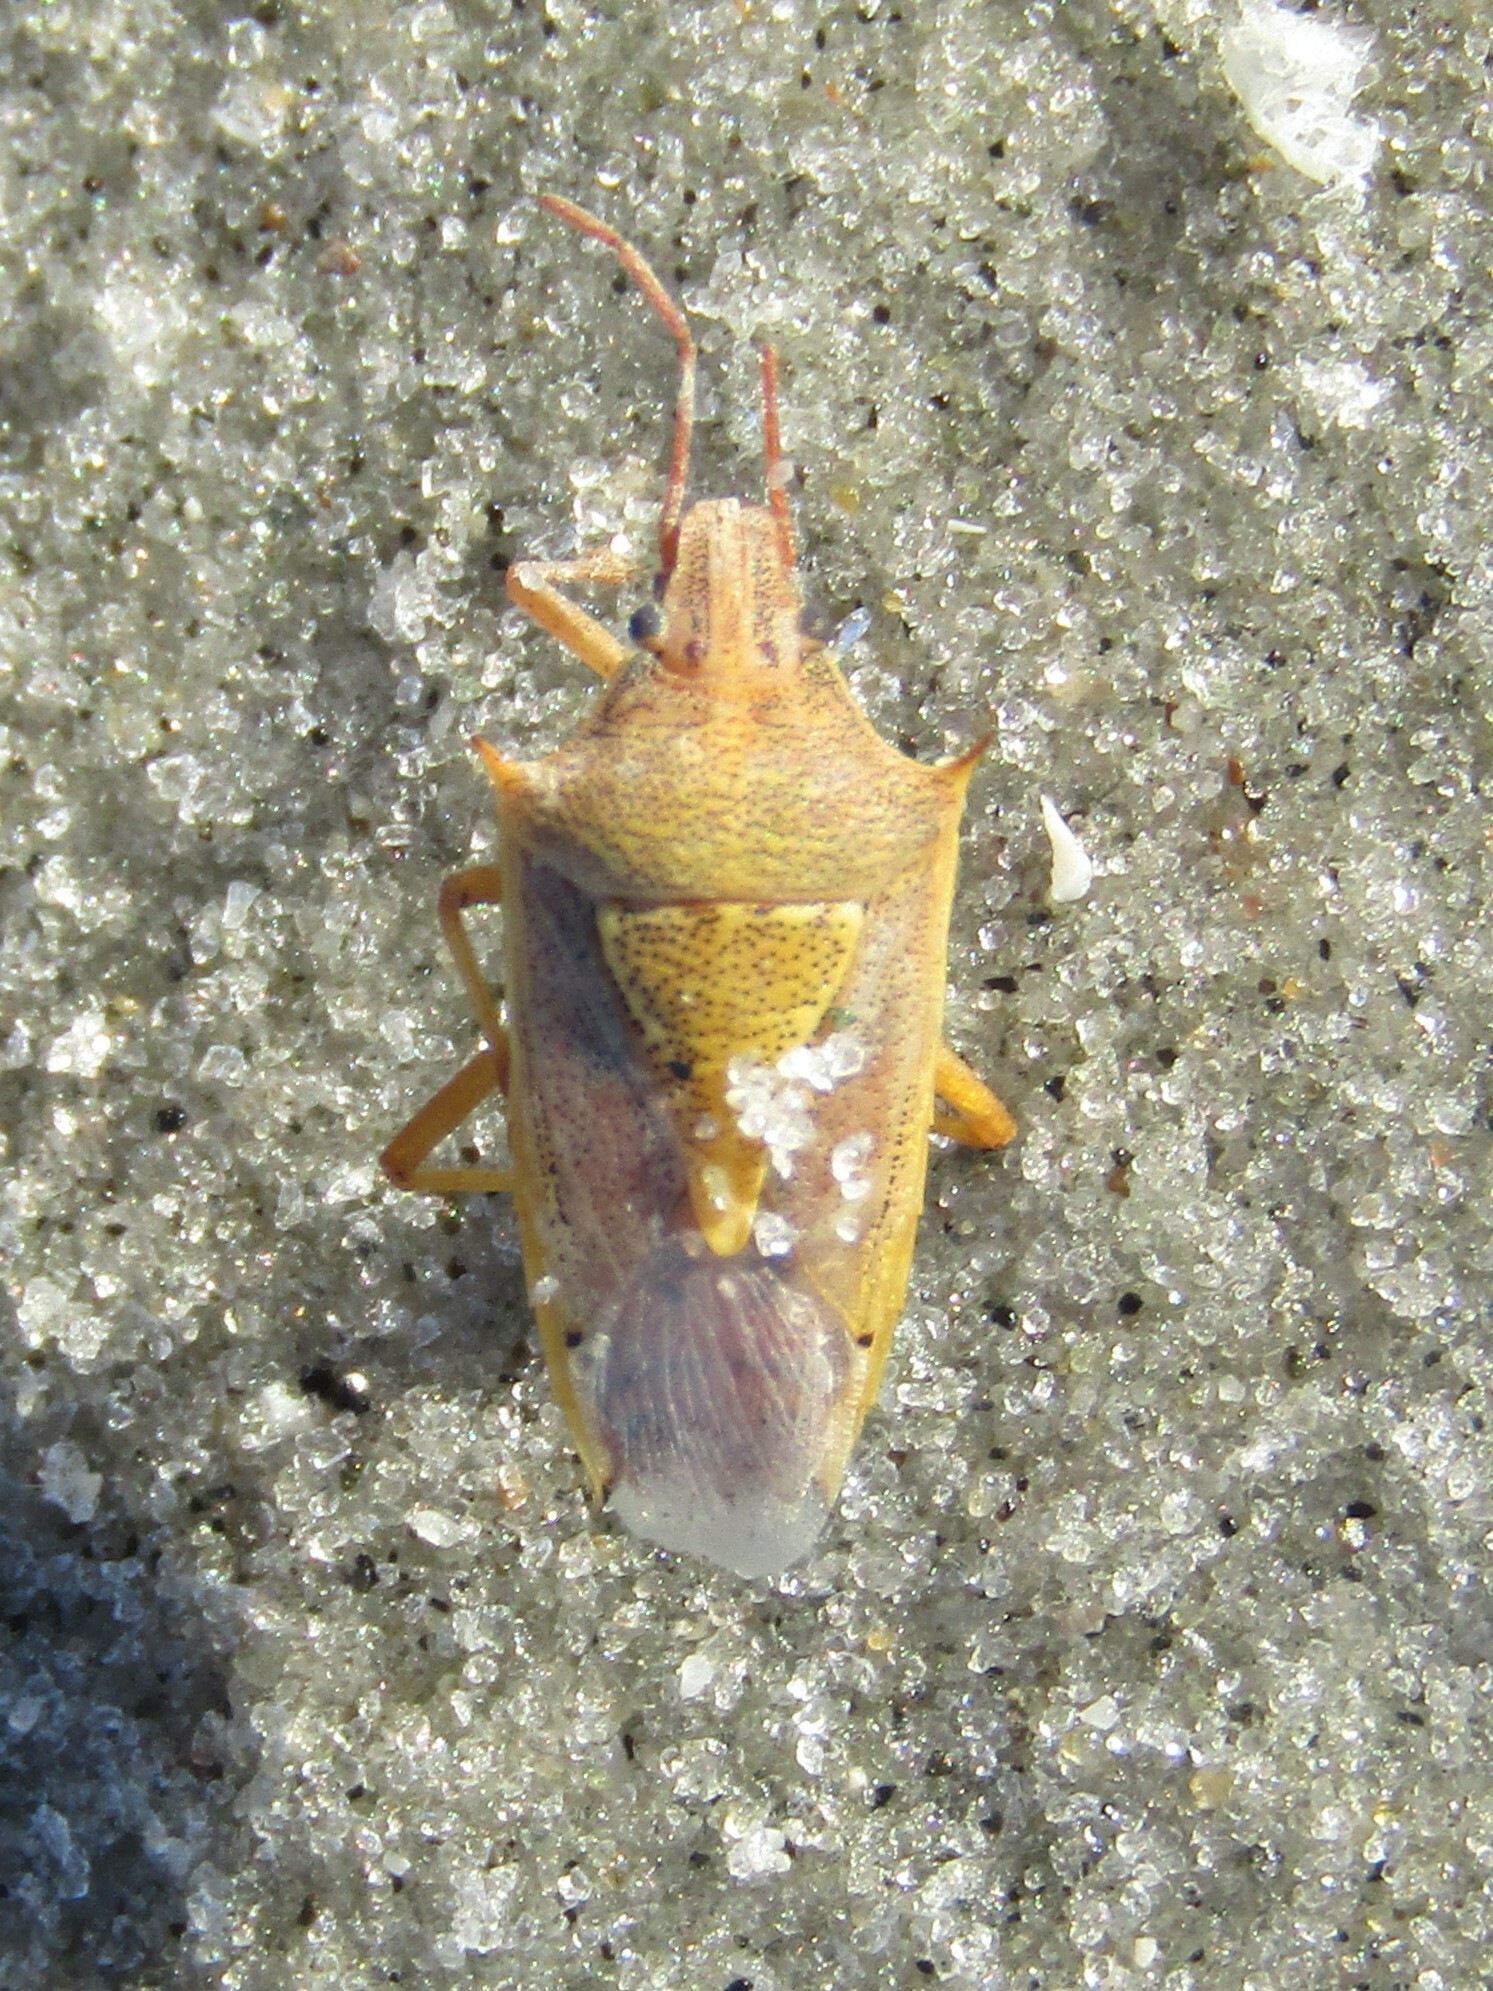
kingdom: Animalia
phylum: Arthropoda
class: Insecta
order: Hemiptera
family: Pentatomidae
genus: Oebalus
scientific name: Oebalus pugnax
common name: Rice stink bug
